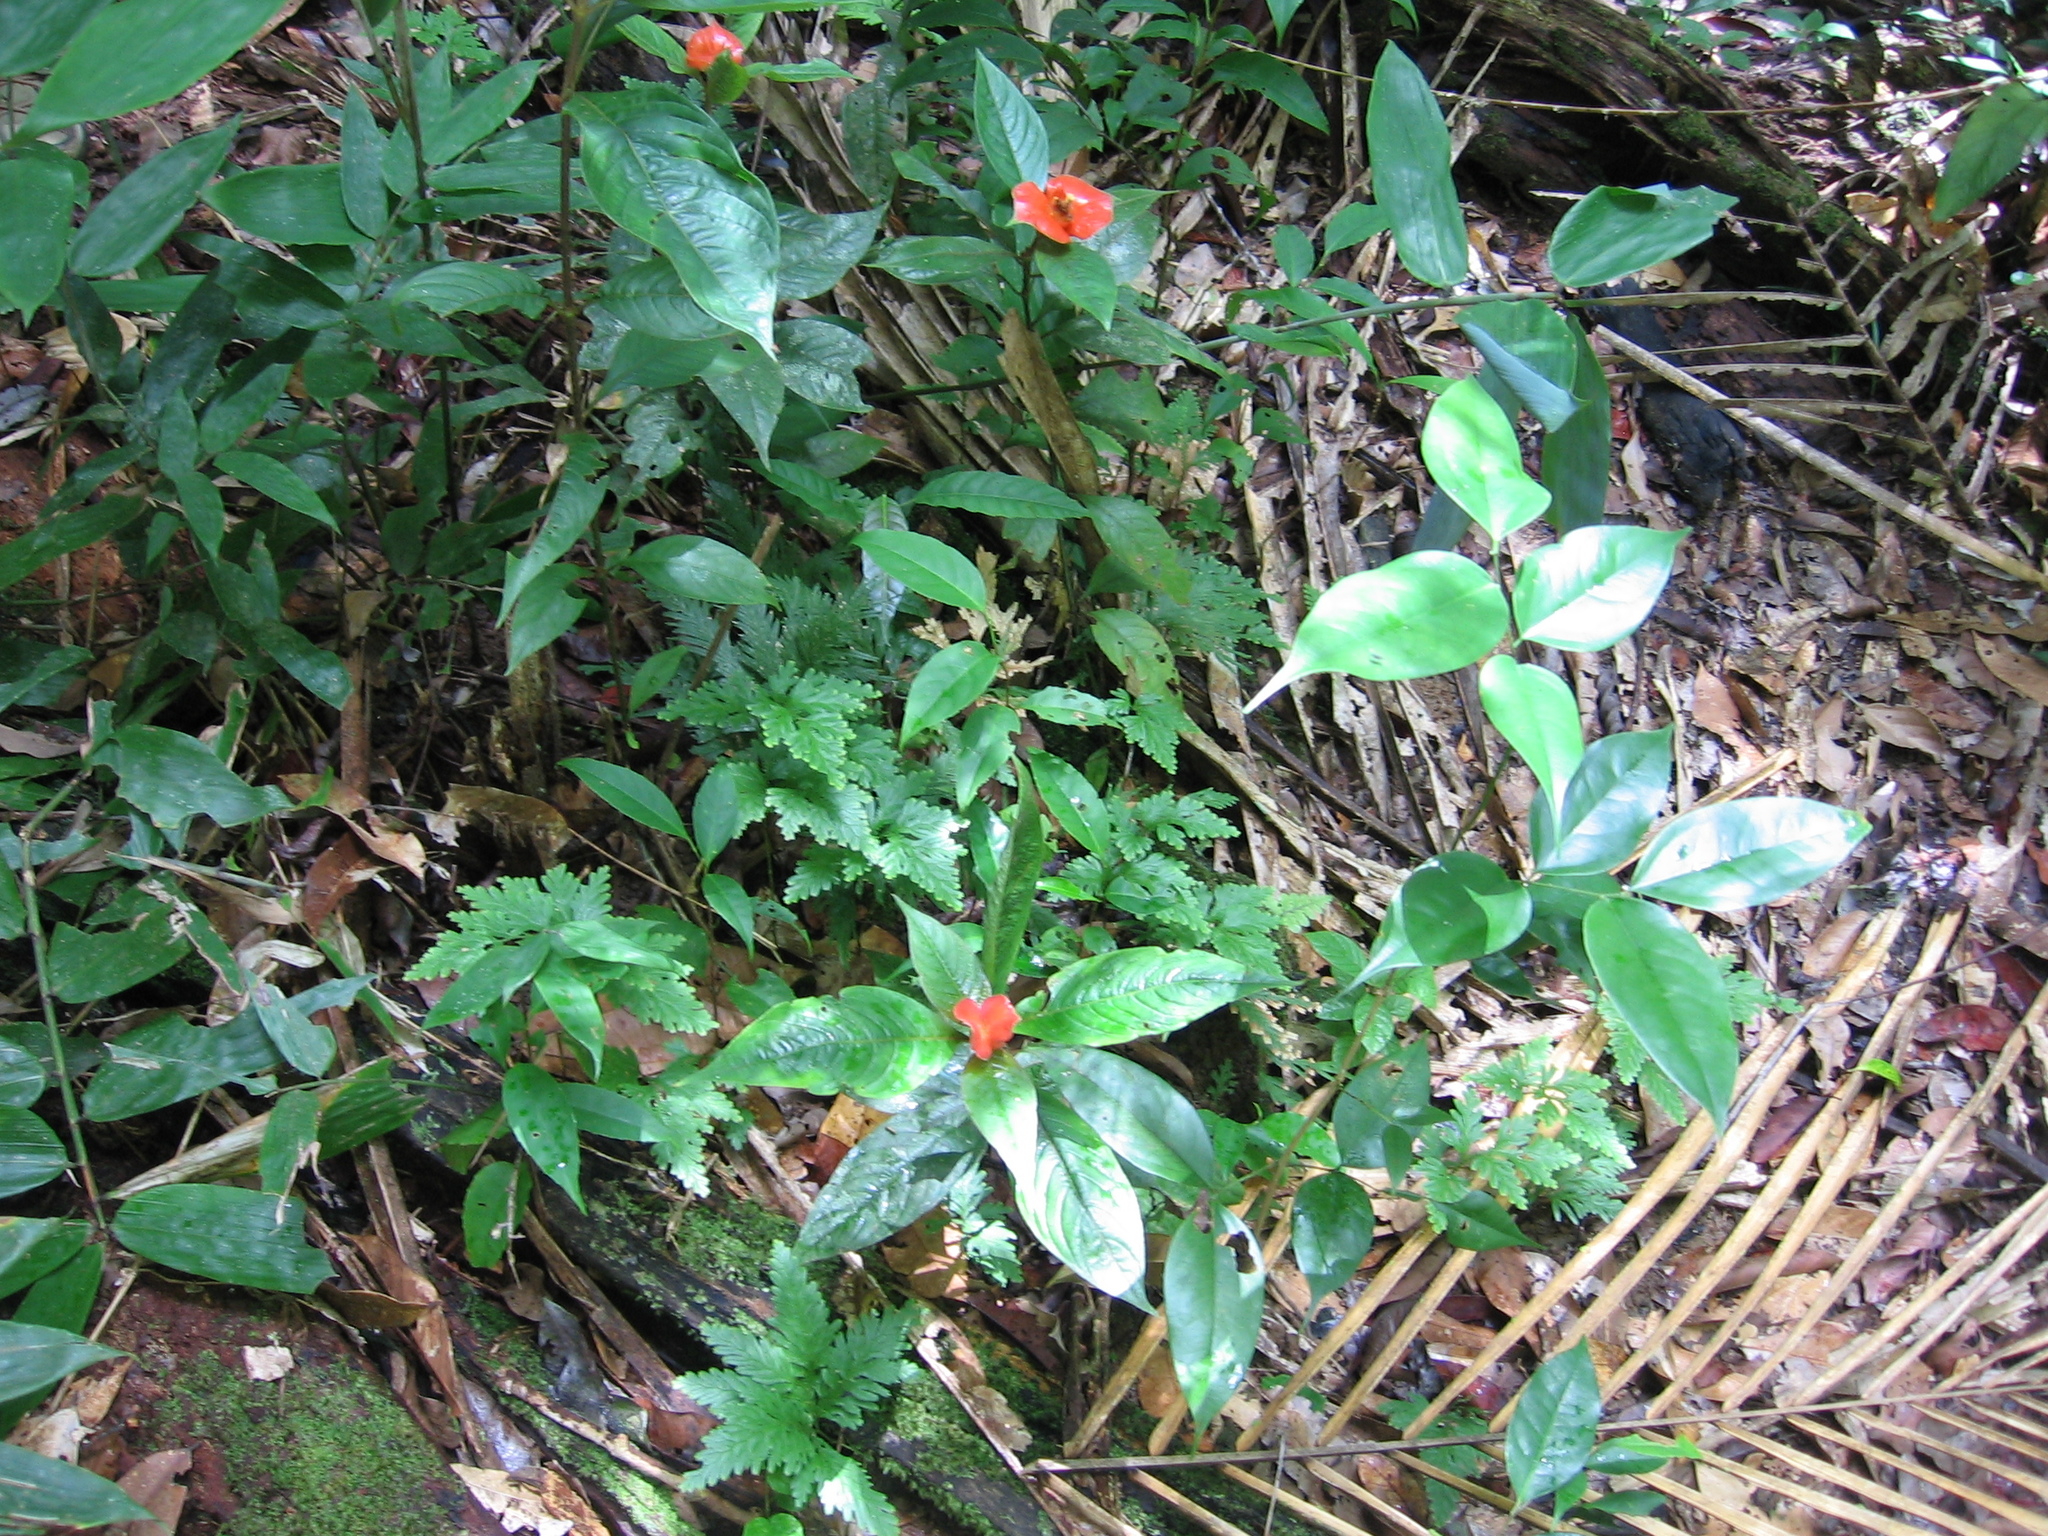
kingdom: Plantae
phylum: Tracheophyta
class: Magnoliopsida
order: Gentianales
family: Rubiaceae
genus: Palicourea
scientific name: Palicourea tomentosa
